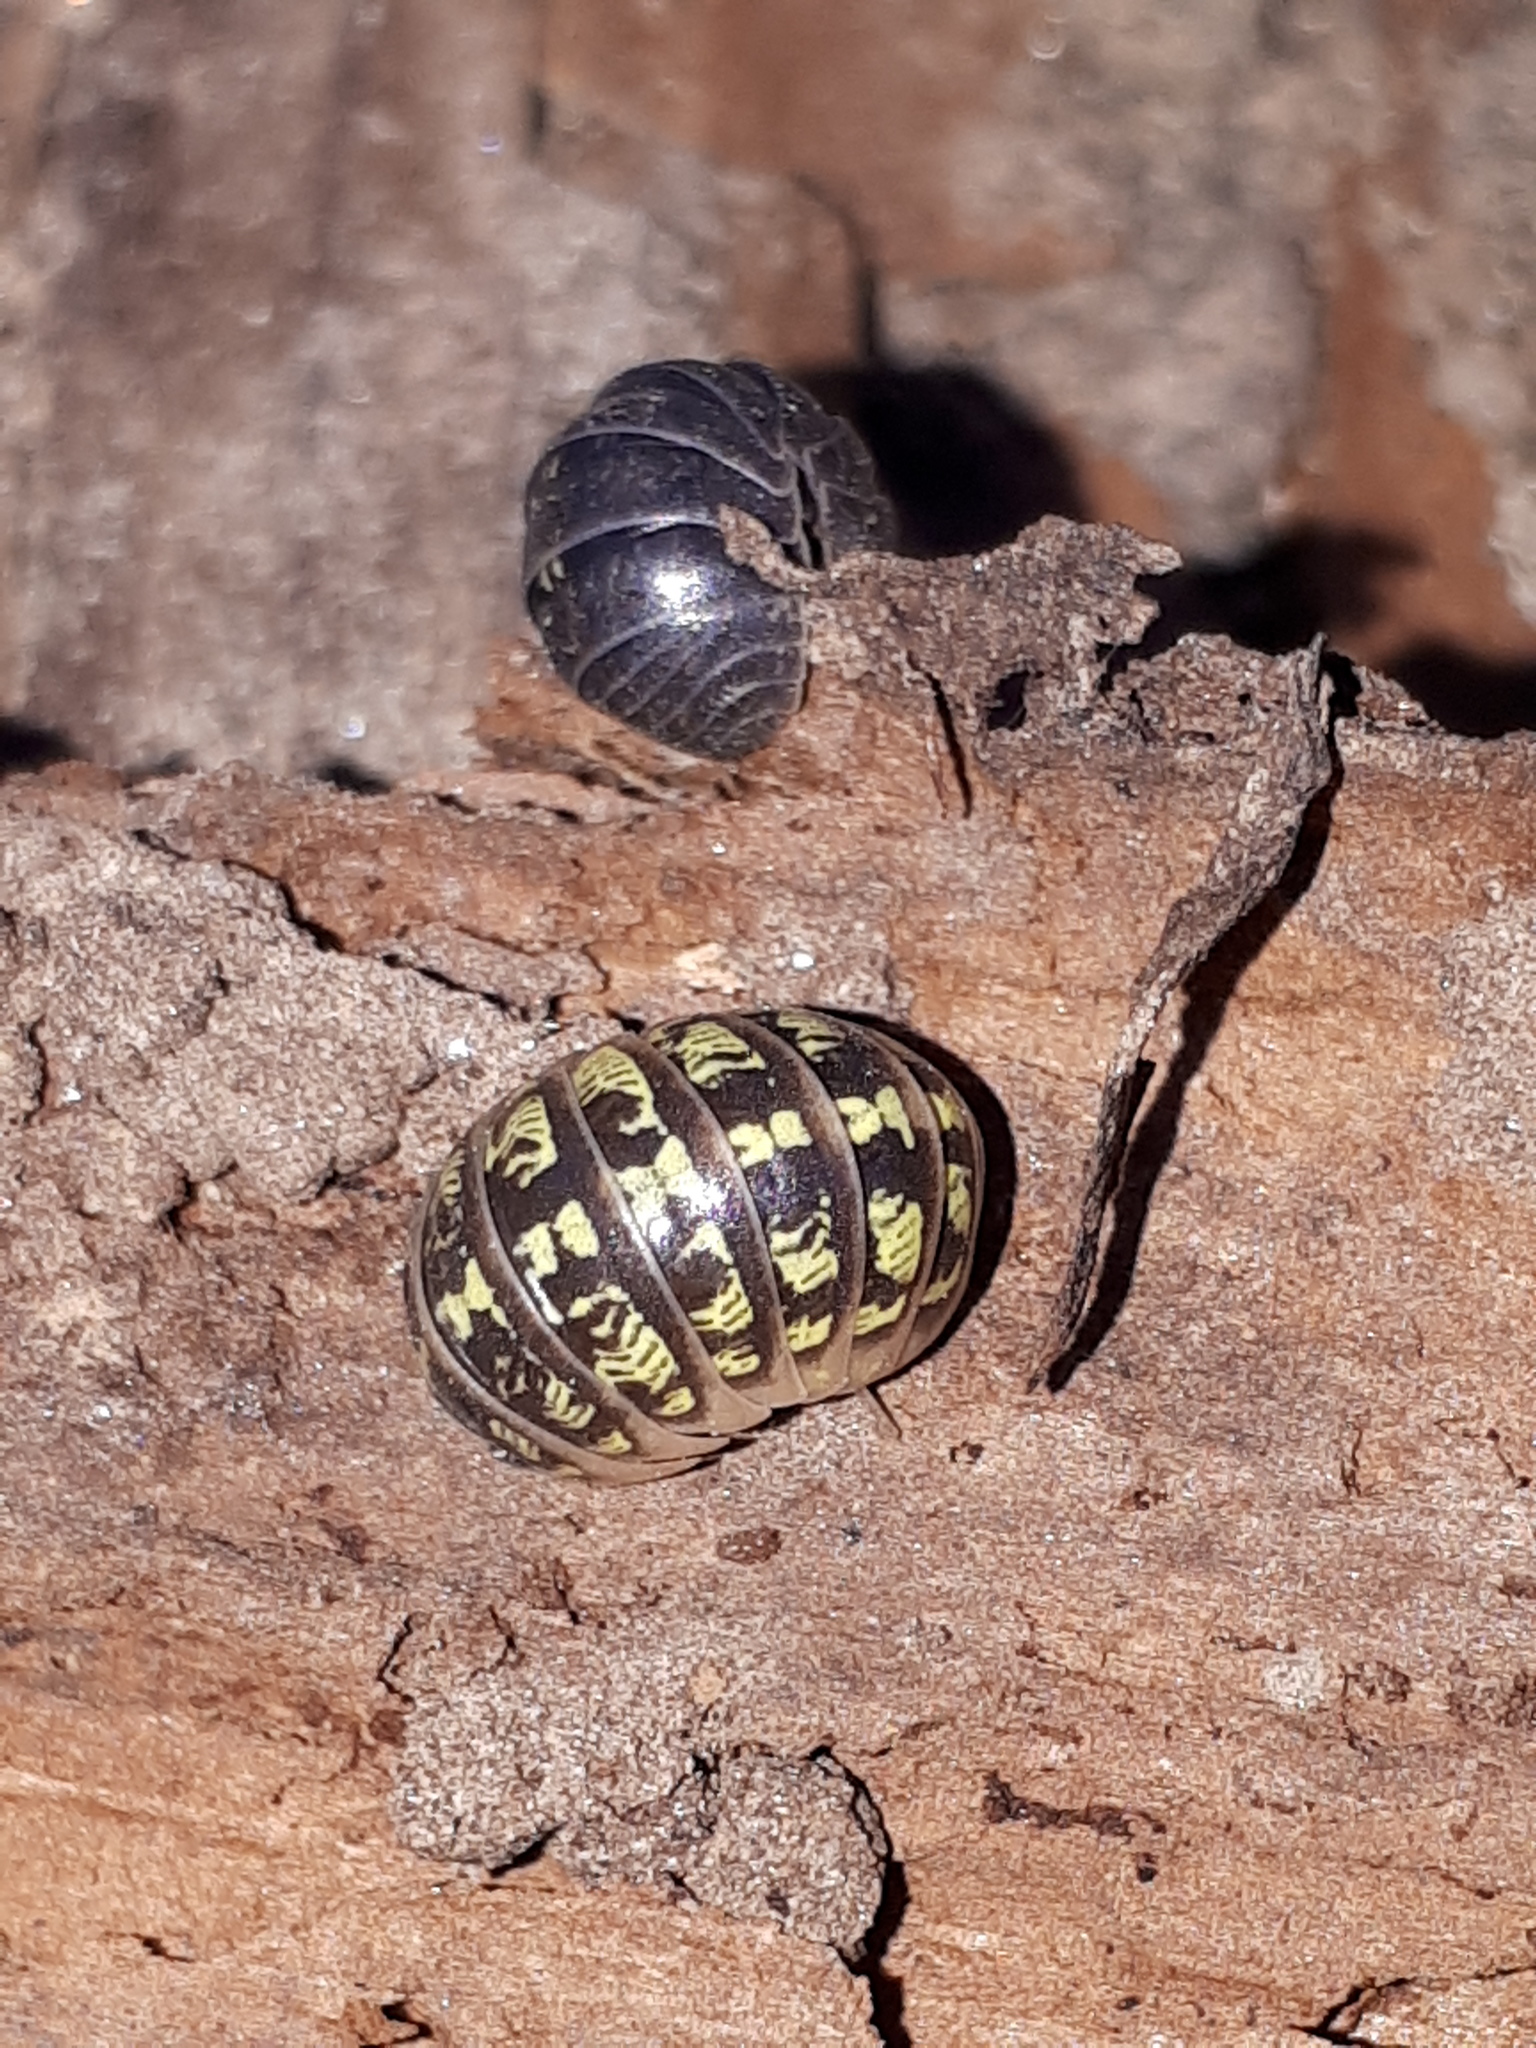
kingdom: Animalia
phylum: Arthropoda
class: Malacostraca
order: Isopoda
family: Armadillidiidae
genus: Armadillidium
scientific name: Armadillidium versicolor
